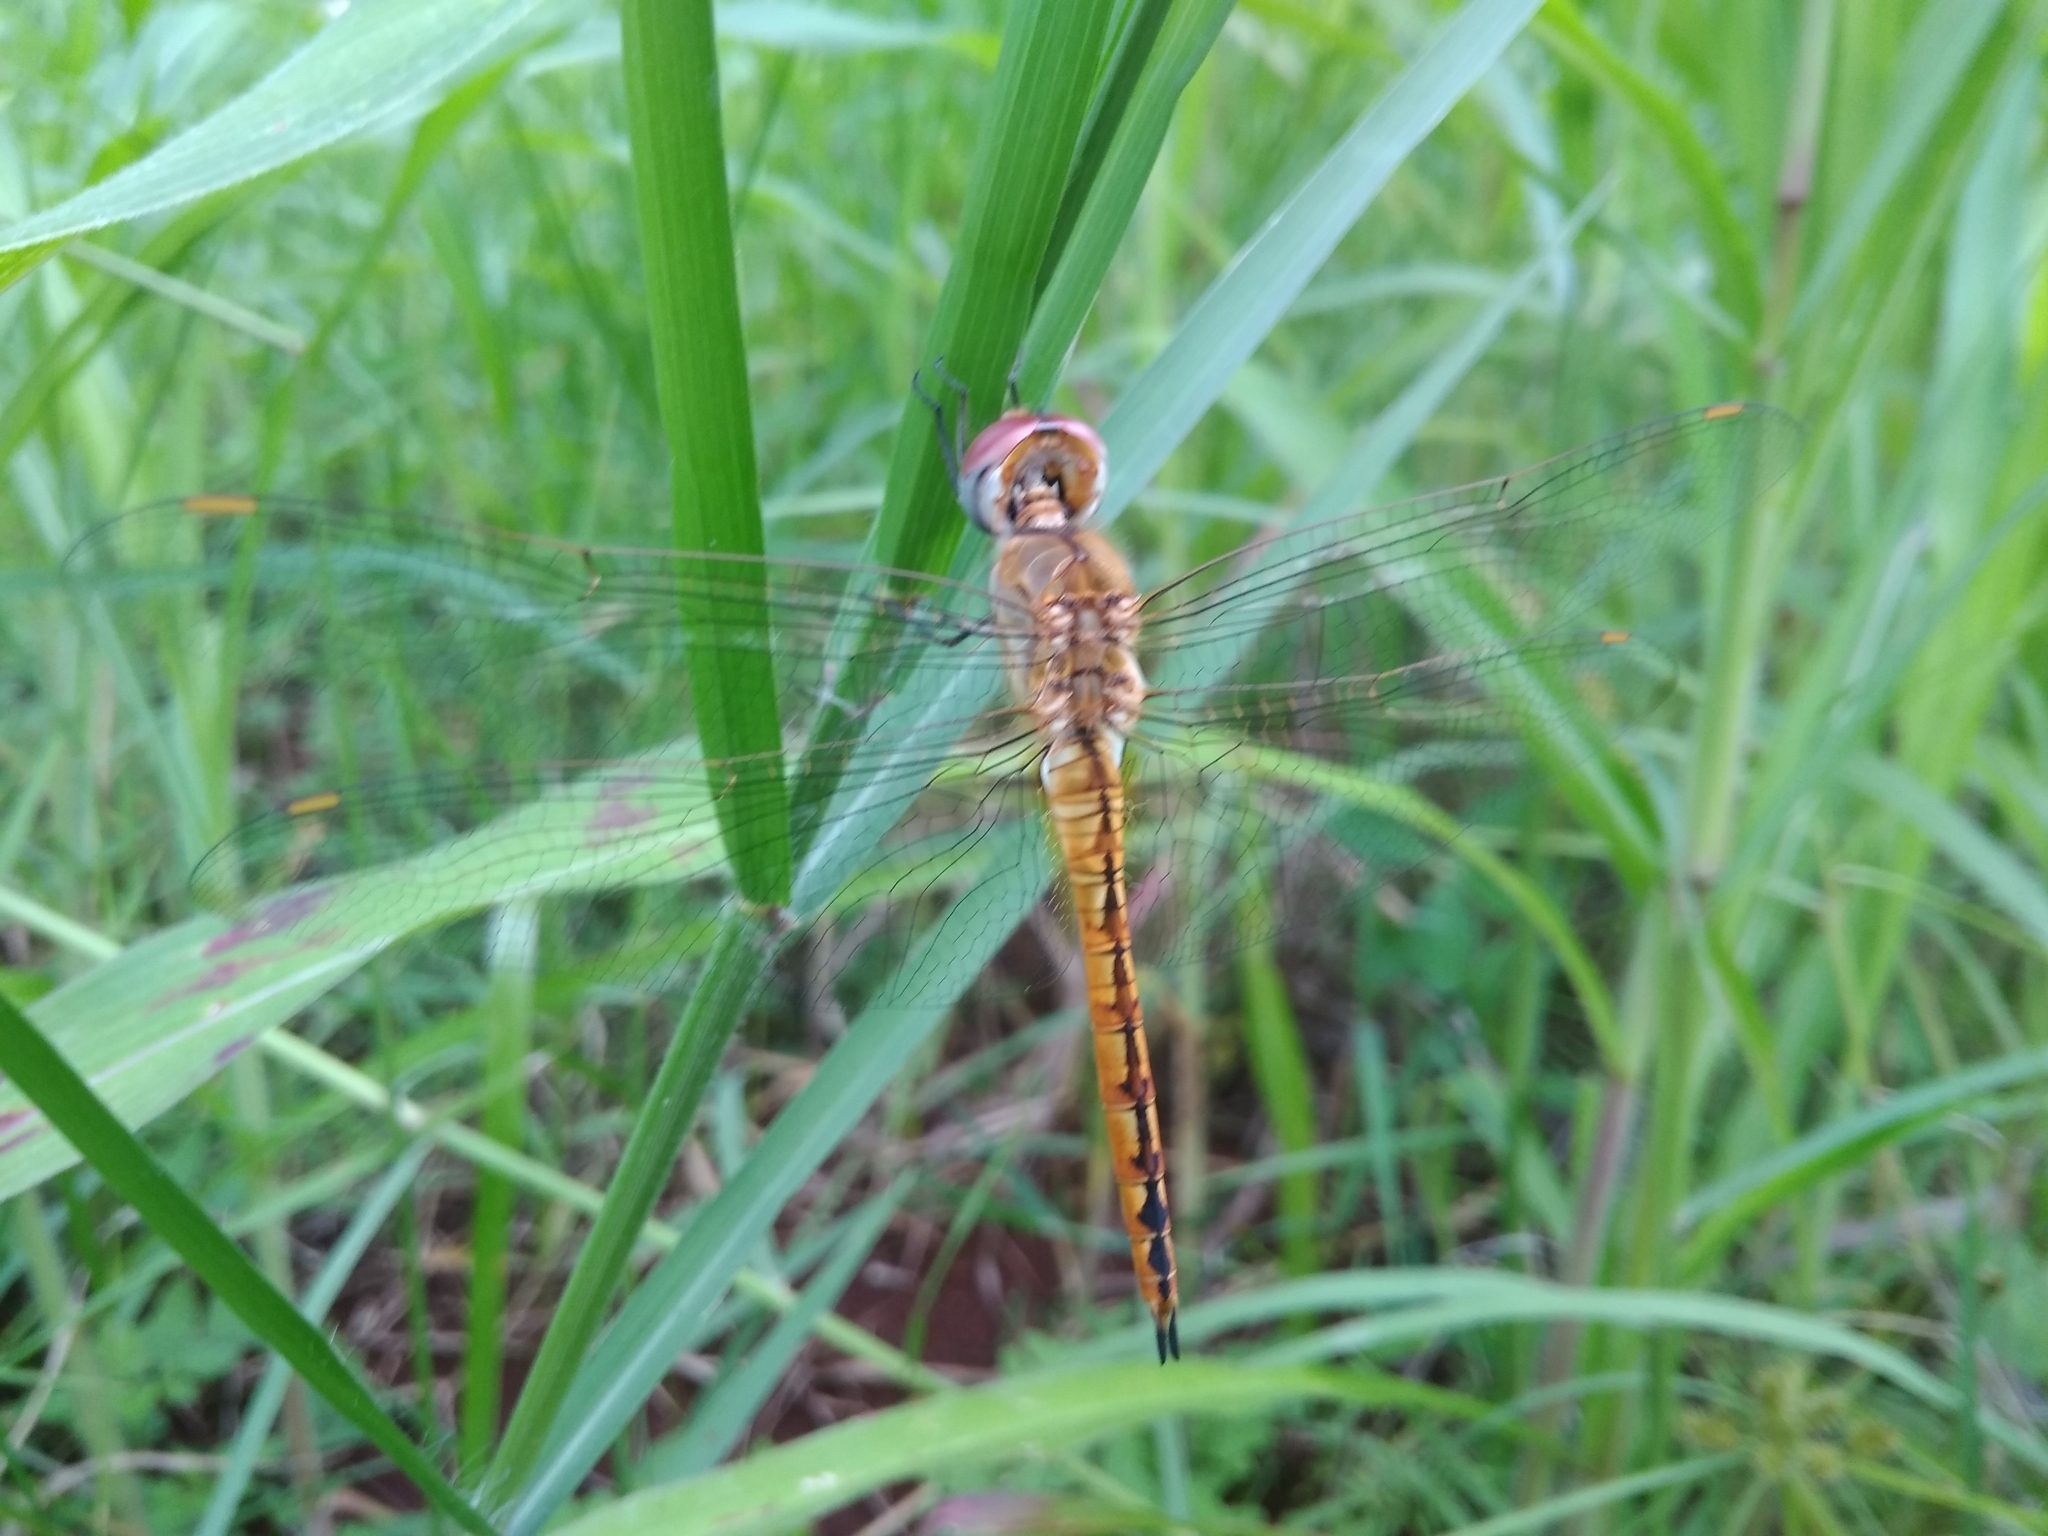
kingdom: Animalia
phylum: Arthropoda
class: Insecta
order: Odonata
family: Libellulidae
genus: Pantala
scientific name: Pantala flavescens
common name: Wandering glider
